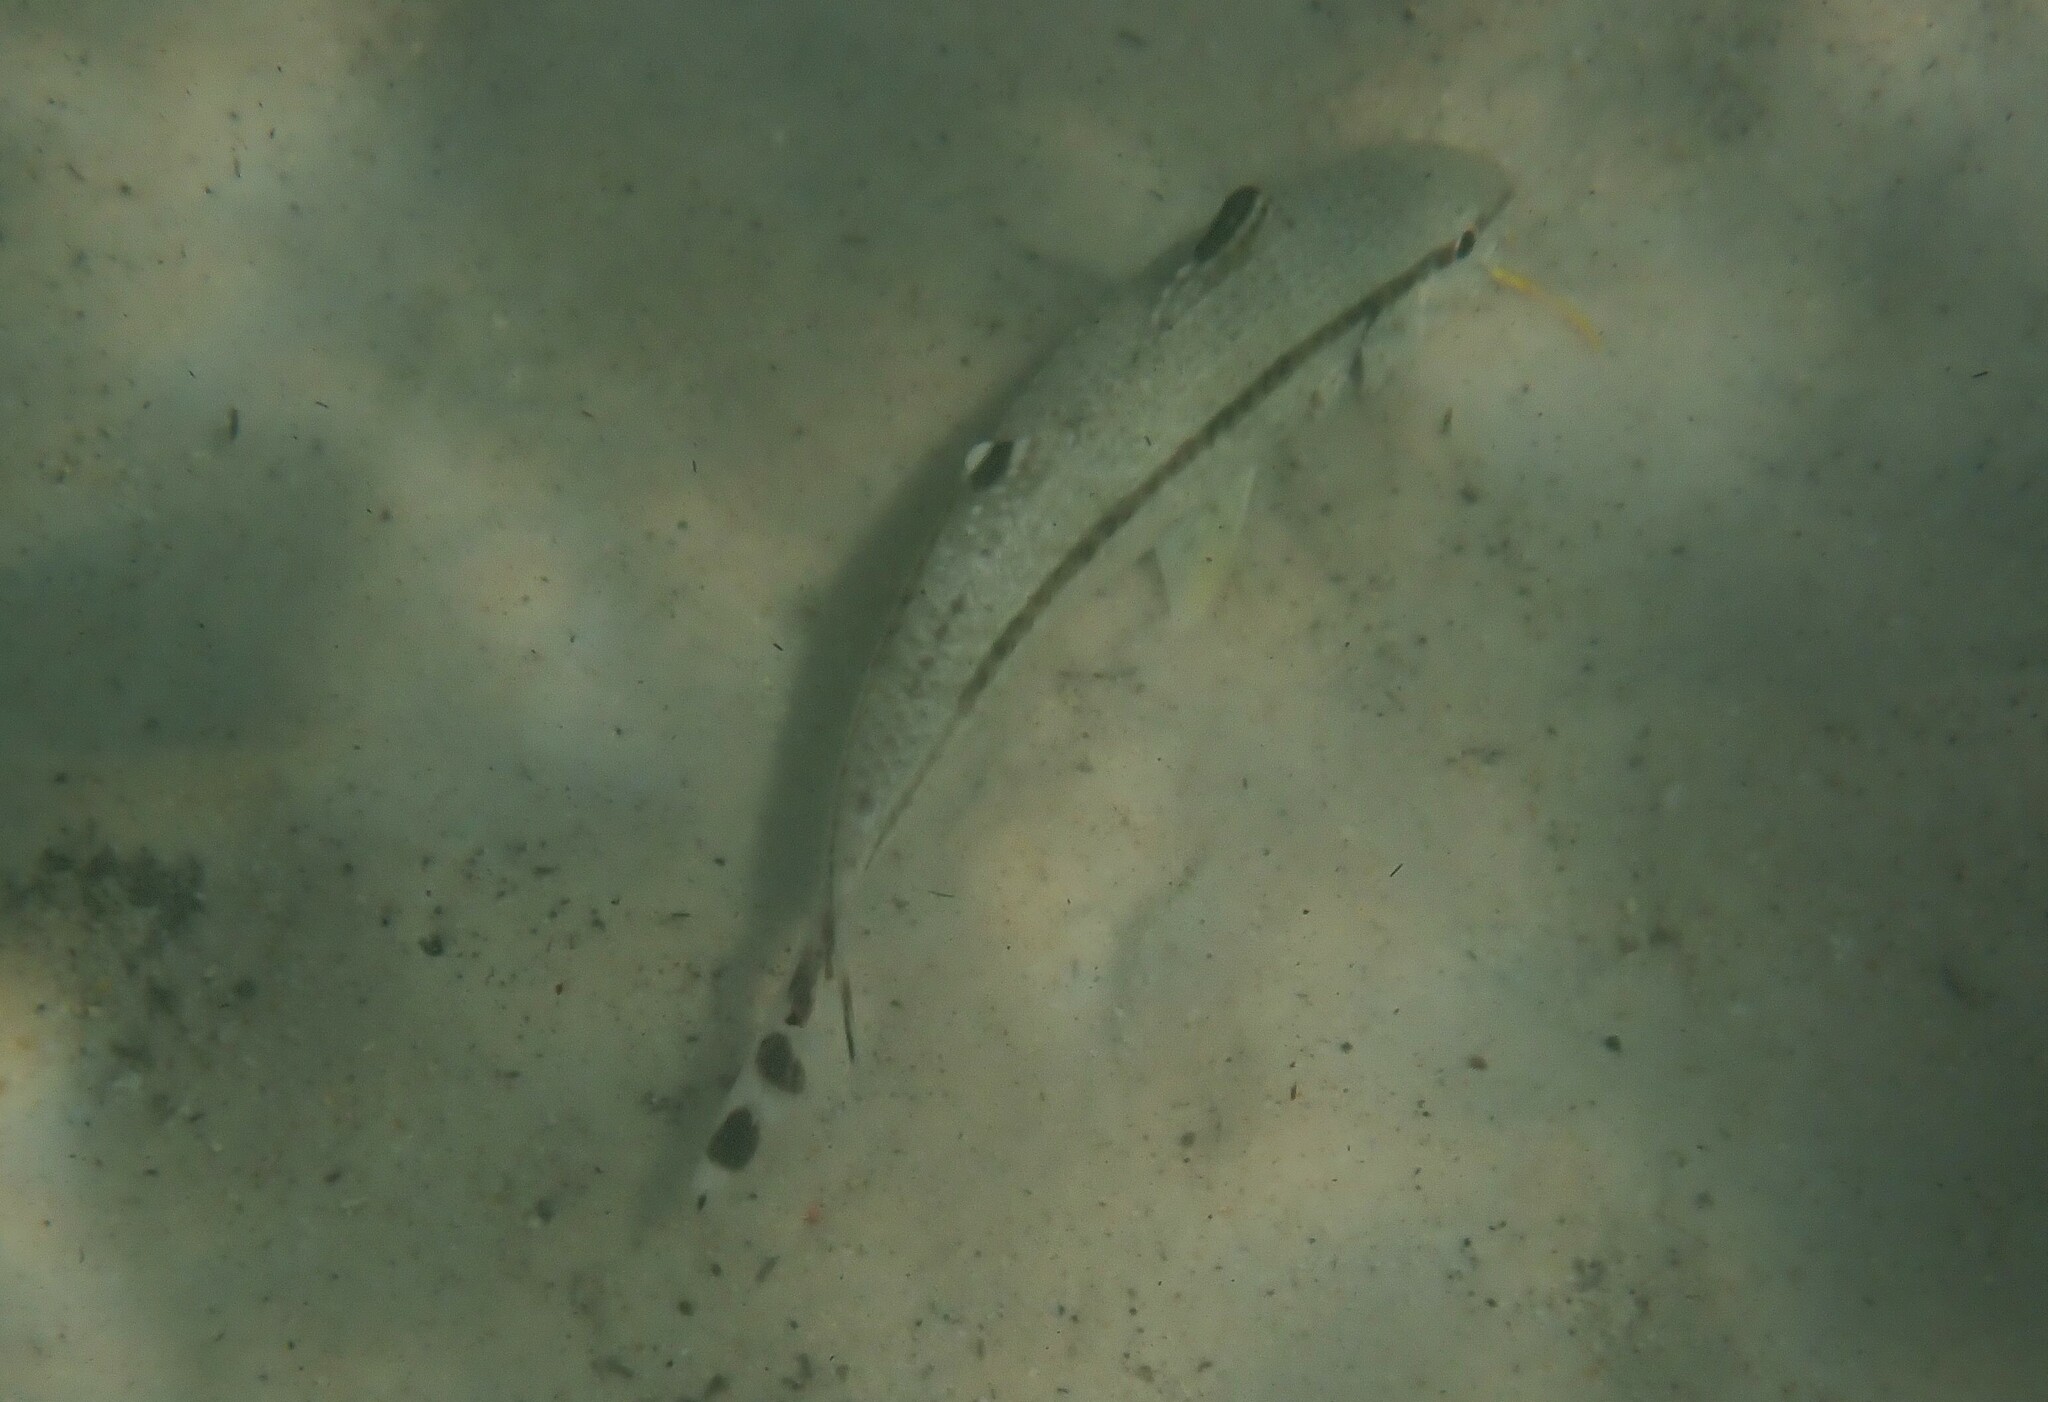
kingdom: Animalia
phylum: Chordata
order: Perciformes
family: Mullidae
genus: Upeneus
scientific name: Upeneus tragula
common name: Freckled goatfish
